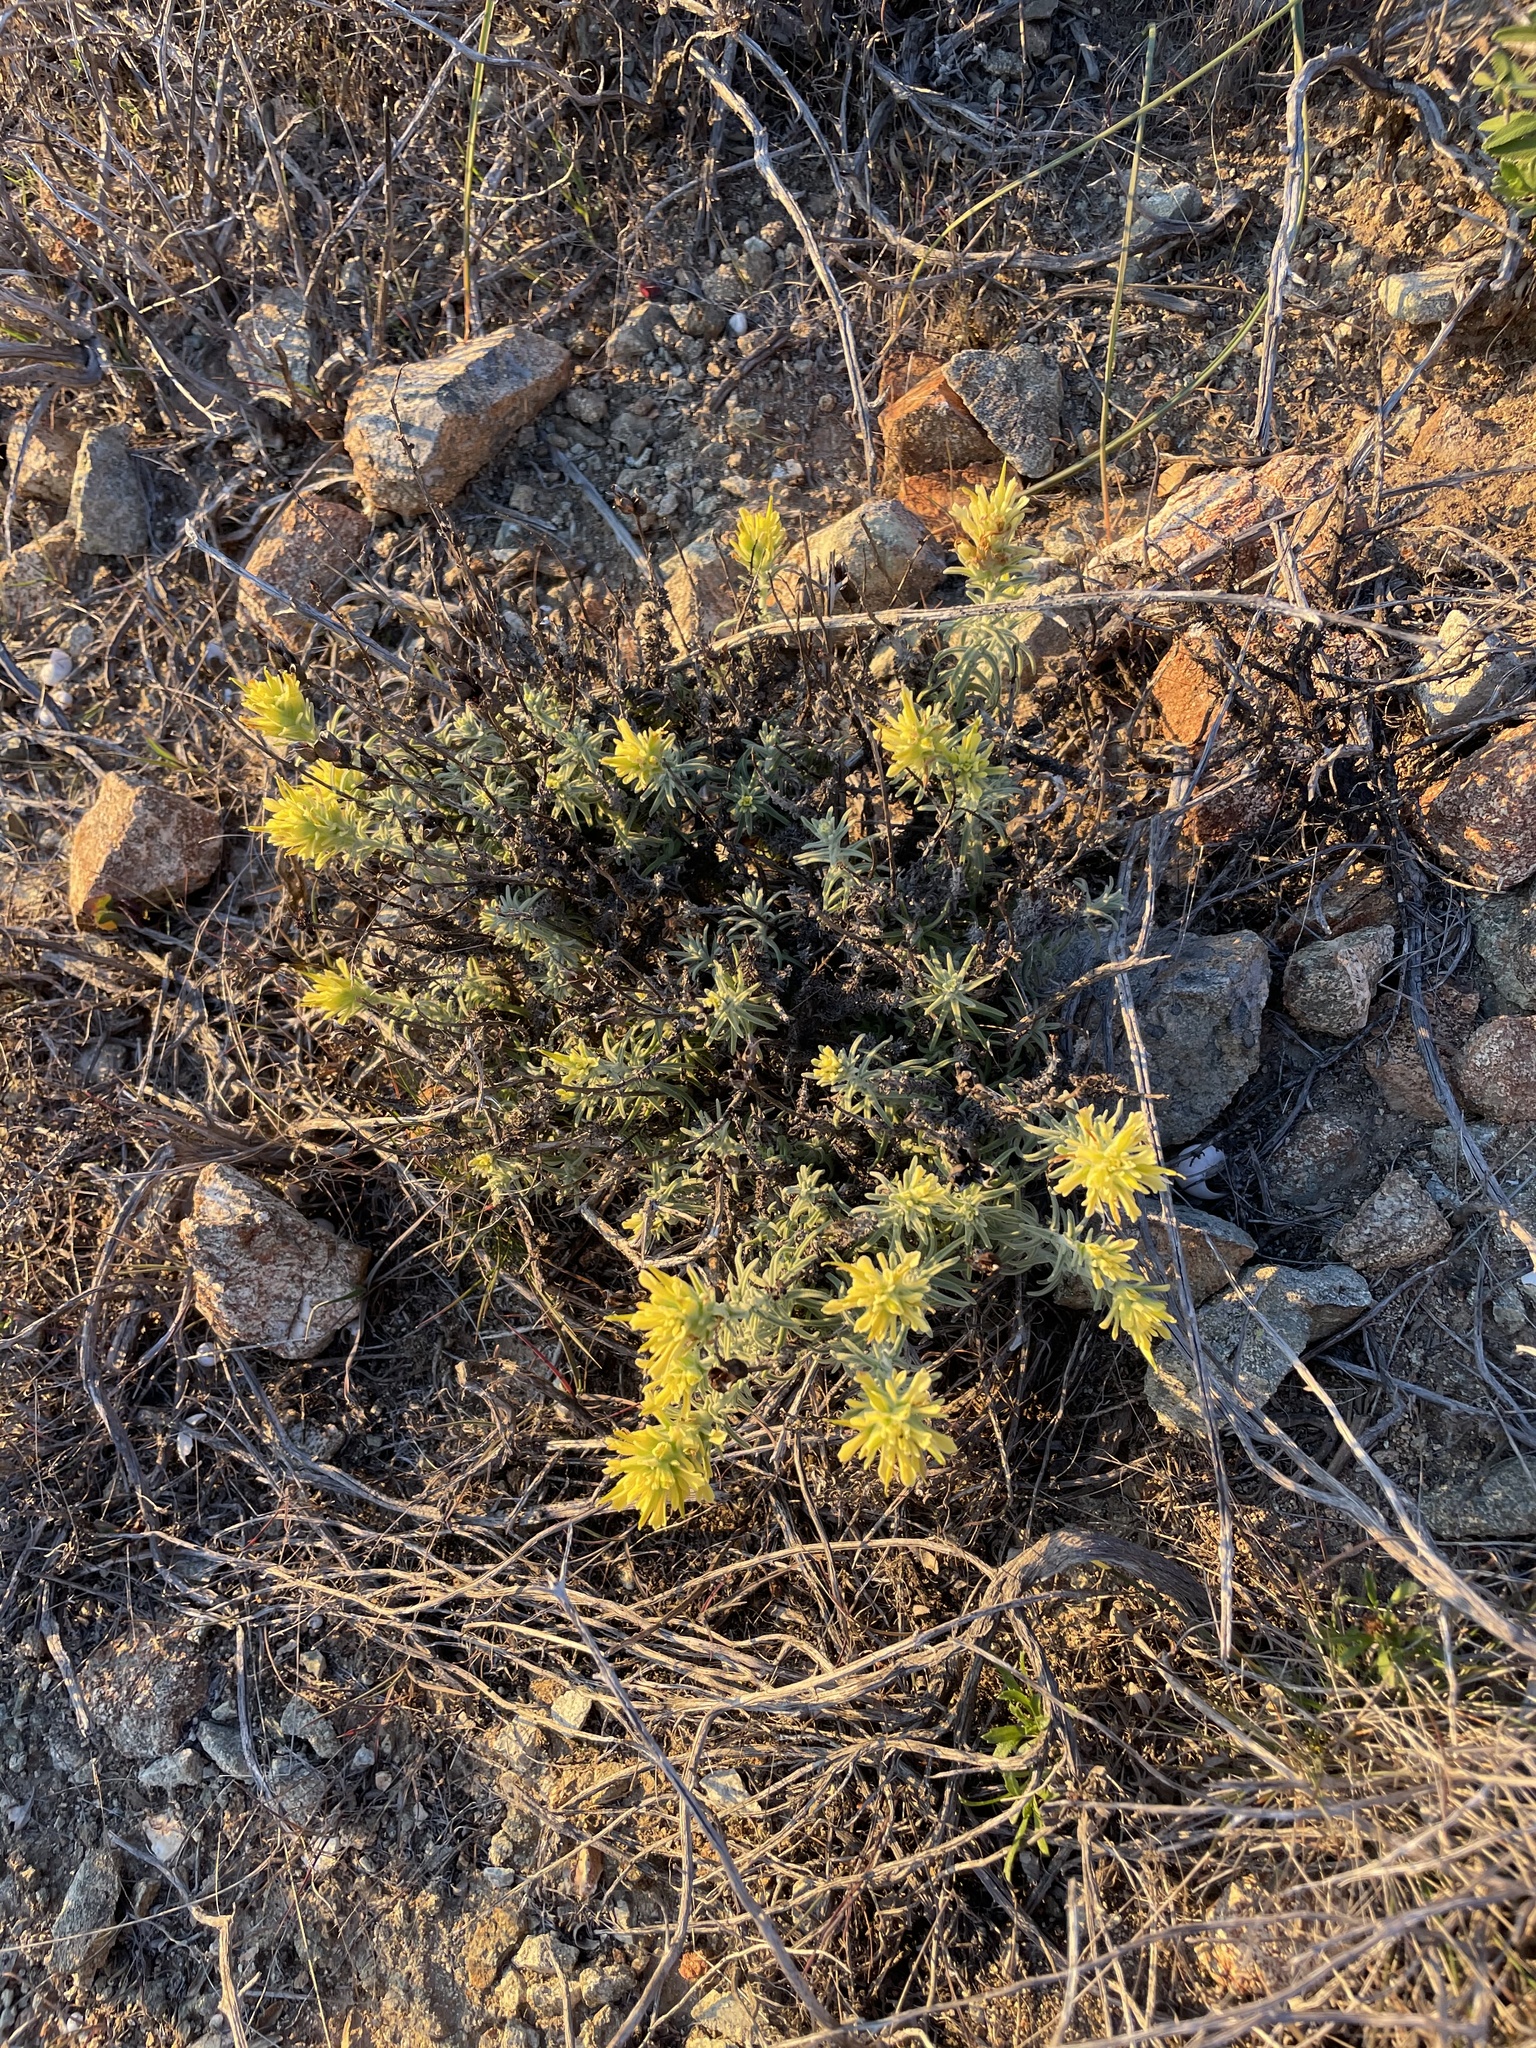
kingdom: Plantae
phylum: Tracheophyta
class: Magnoliopsida
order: Lamiales
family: Orobanchaceae
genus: Castilleja
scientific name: Castilleja foliolosa
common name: Woolly indian paintbrush
